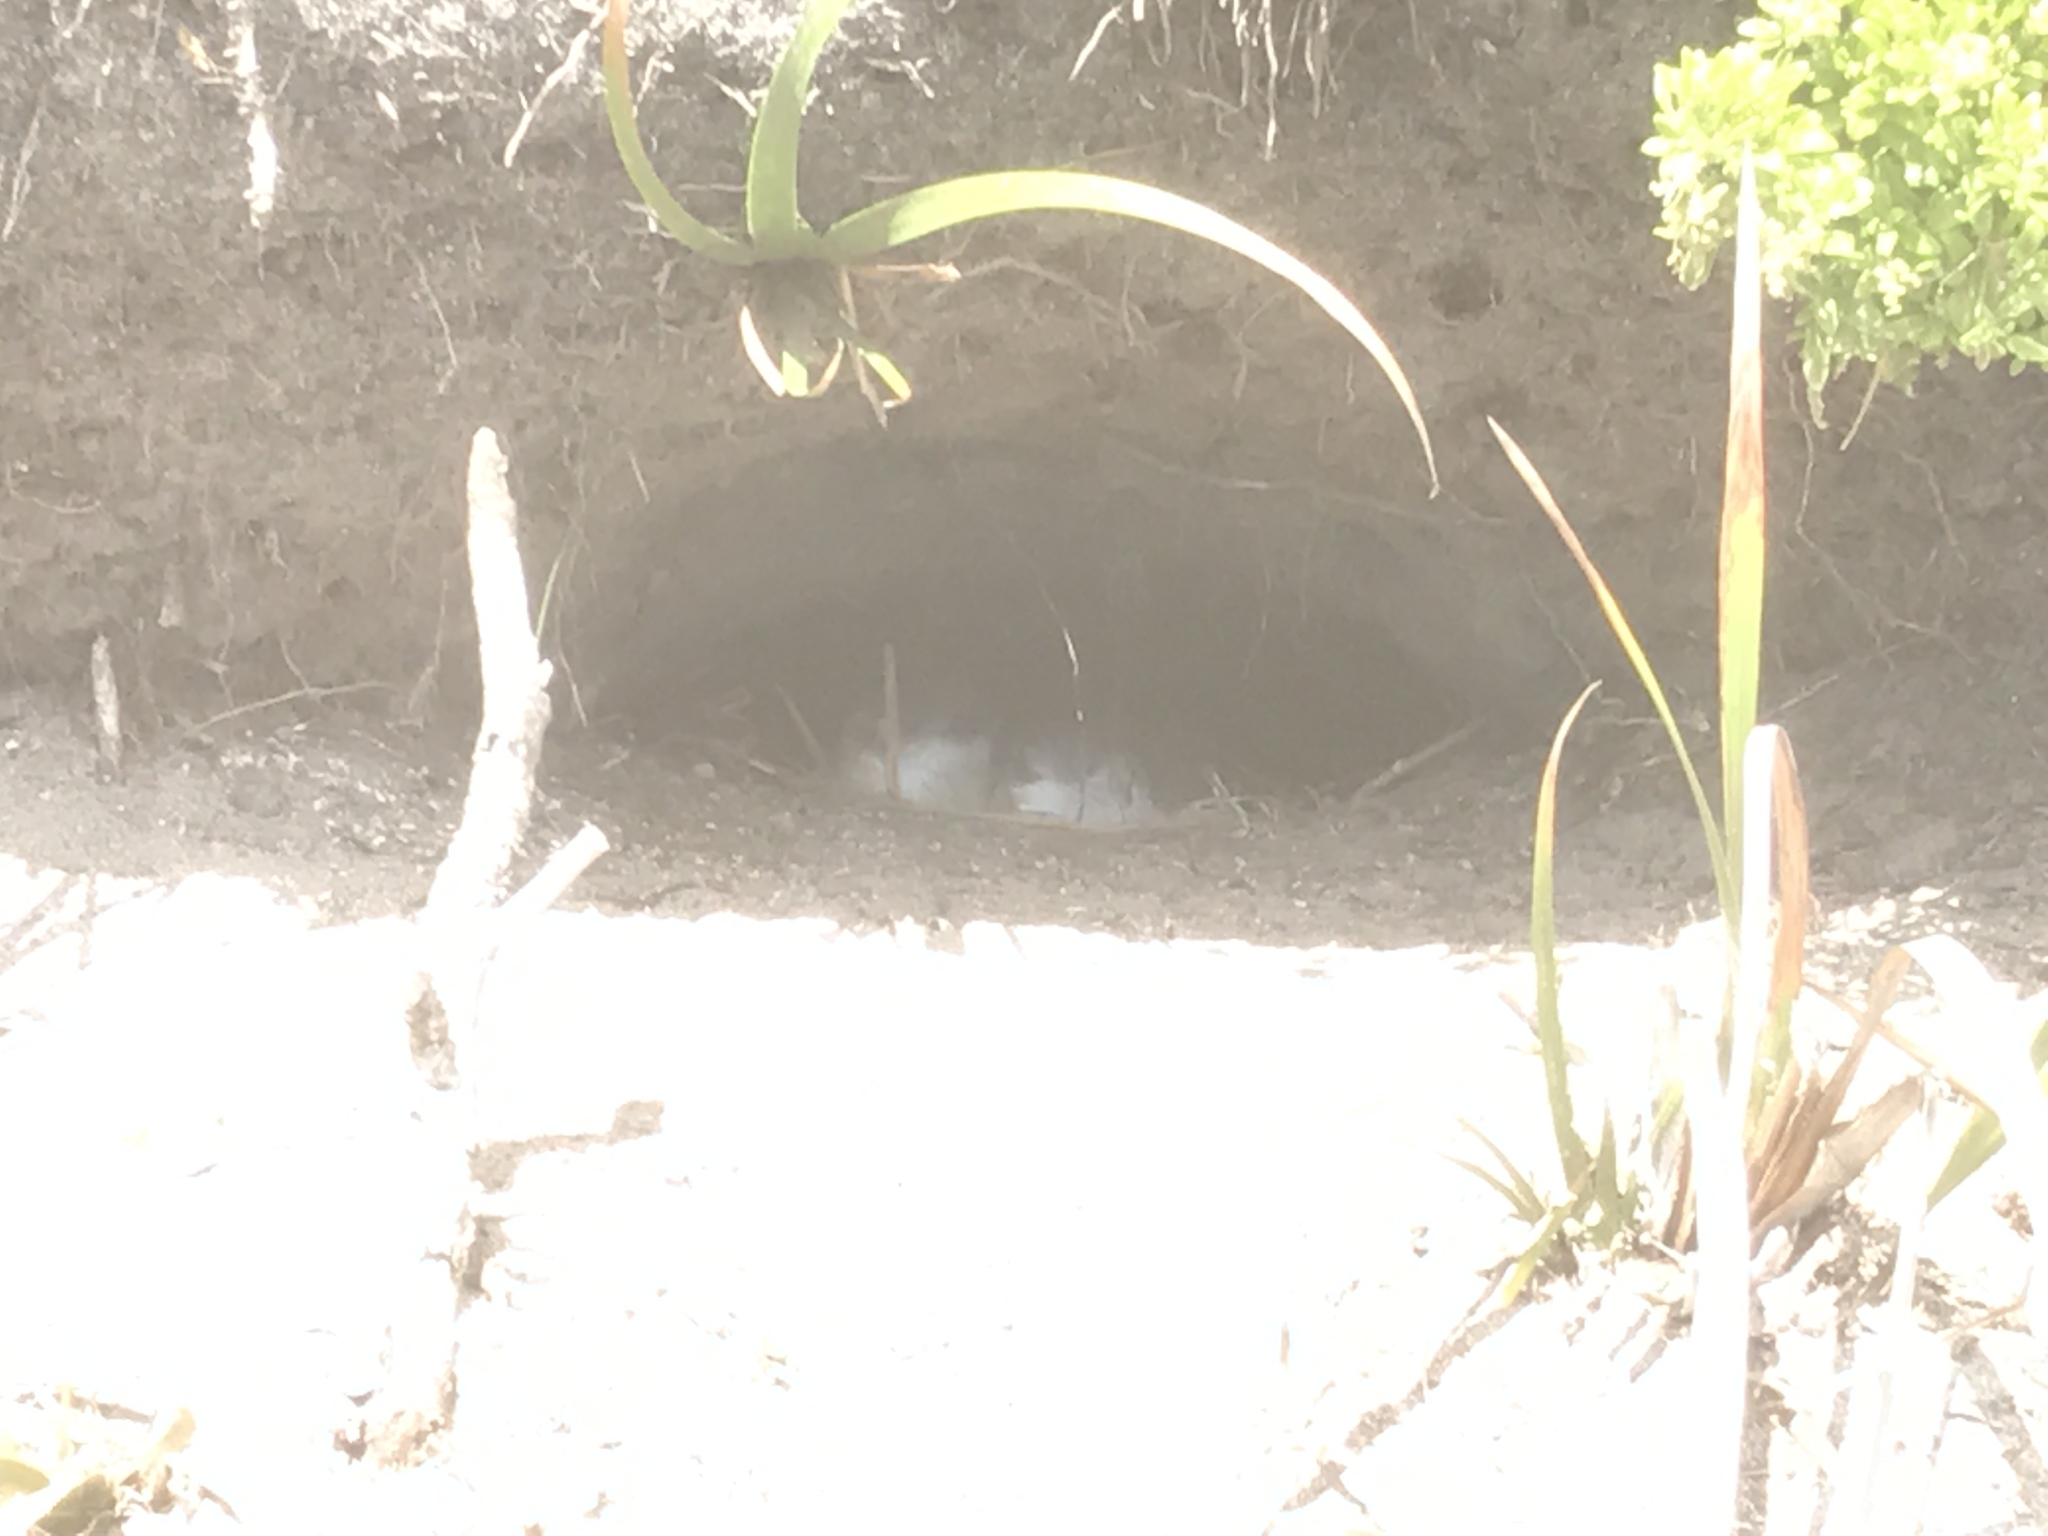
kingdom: Animalia
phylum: Chordata
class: Aves
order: Sphenisciformes
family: Spheniscidae
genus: Eudyptula
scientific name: Eudyptula minor
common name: Little penguin
